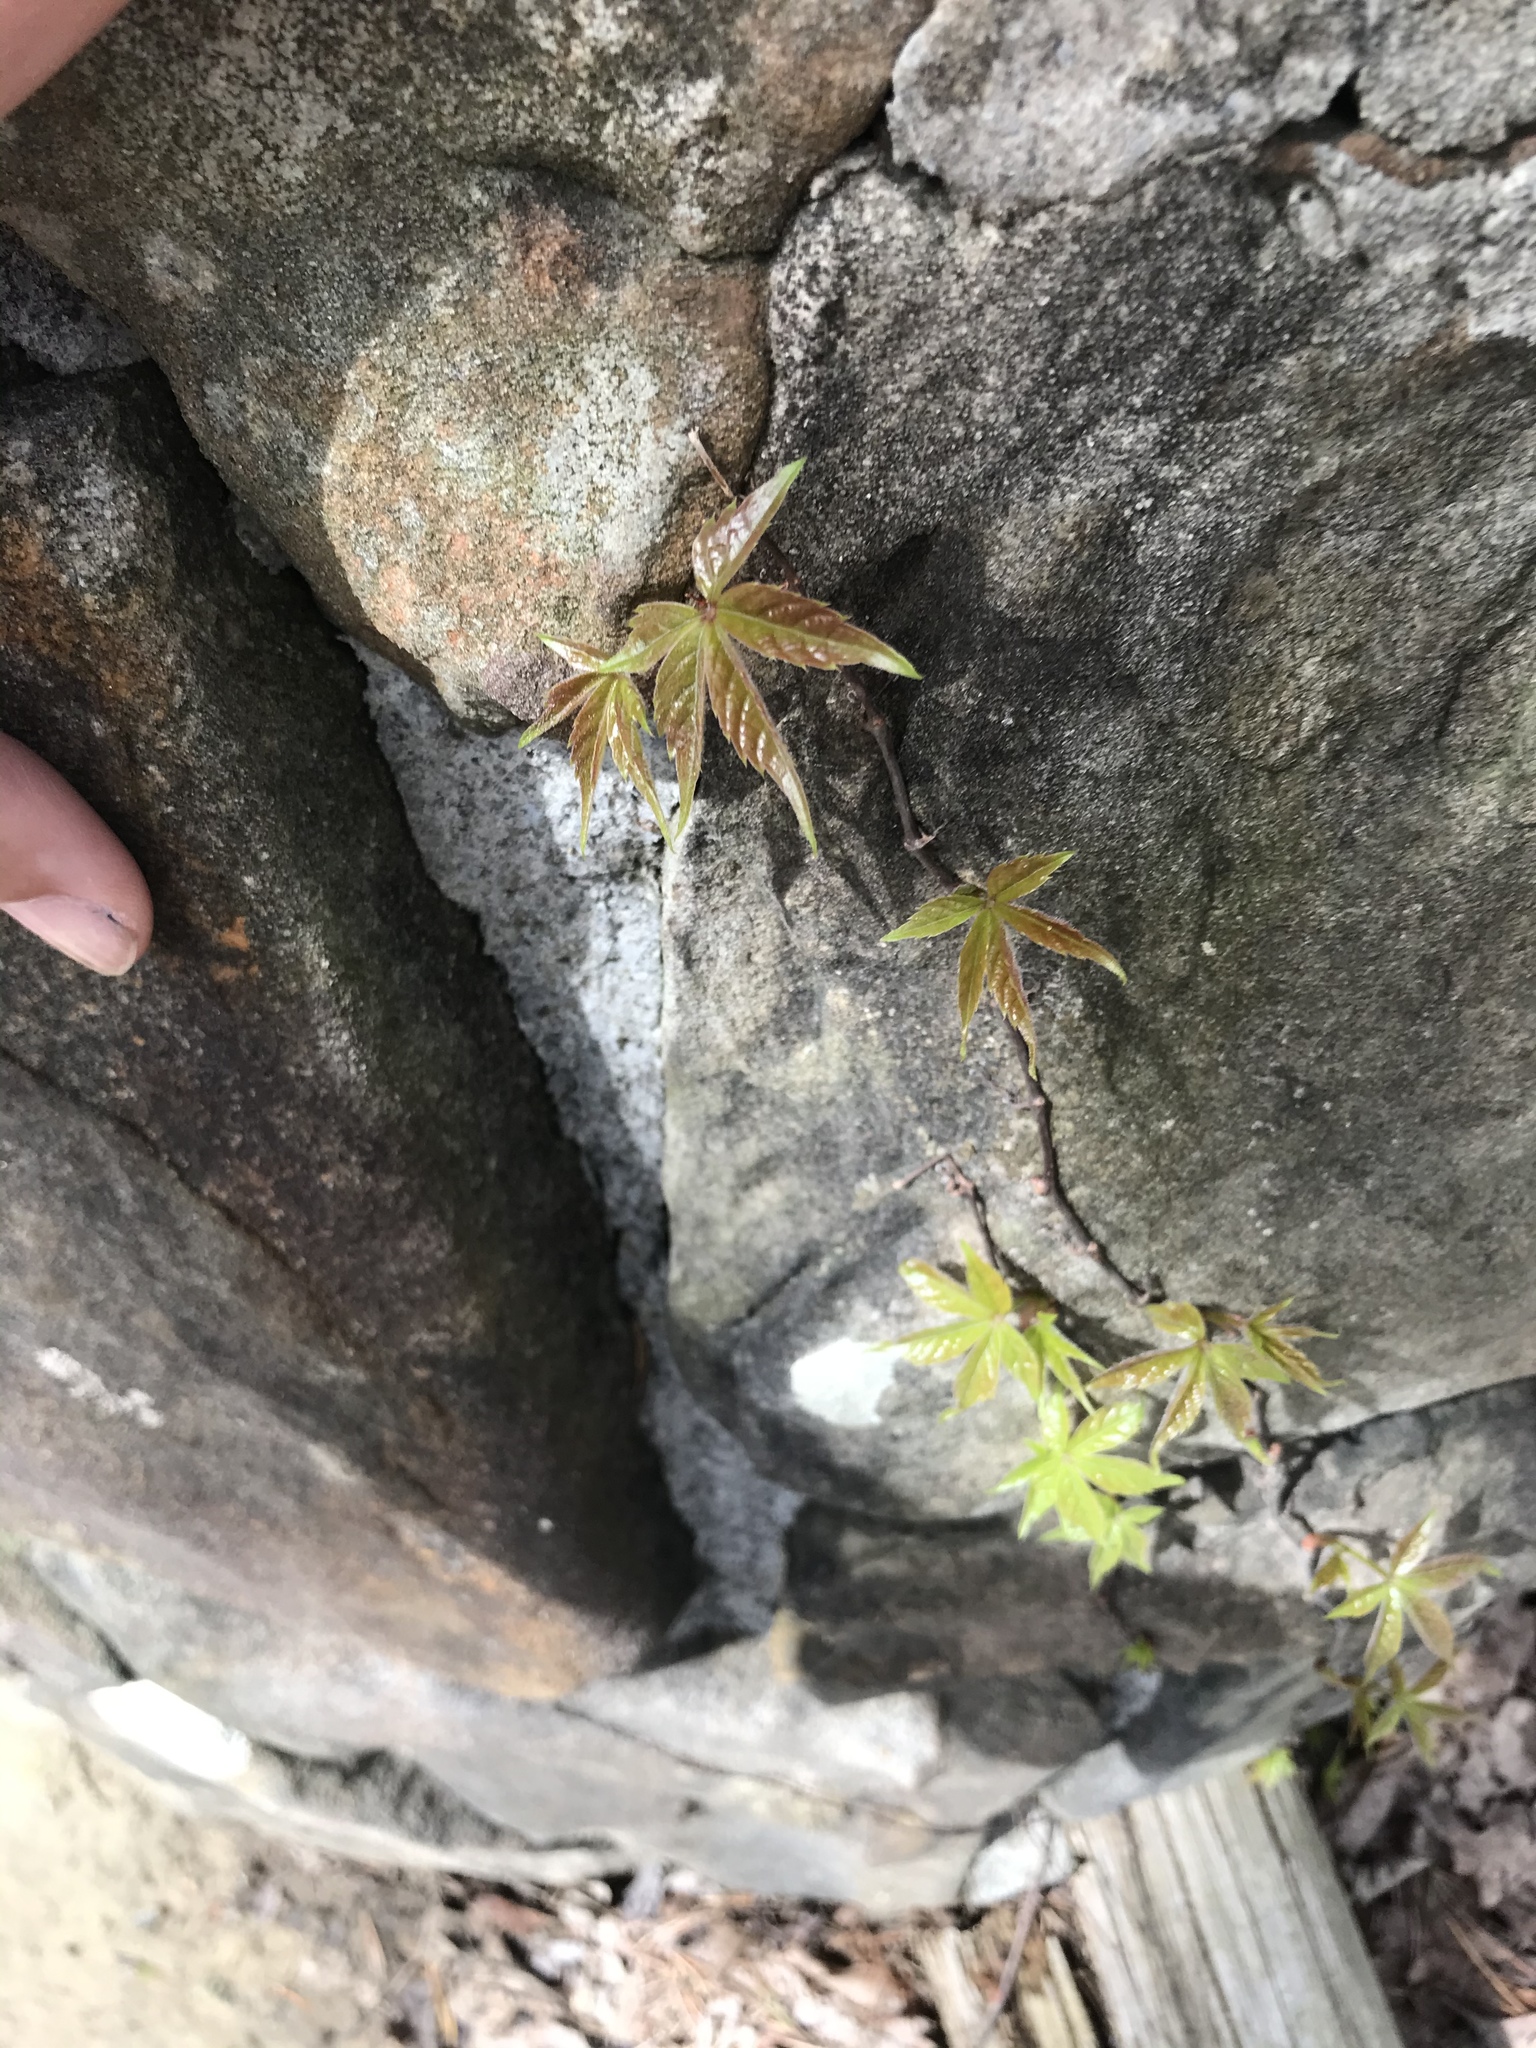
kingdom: Plantae
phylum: Tracheophyta
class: Magnoliopsida
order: Vitales
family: Vitaceae
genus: Parthenocissus
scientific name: Parthenocissus quinquefolia
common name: Virginia-creeper
